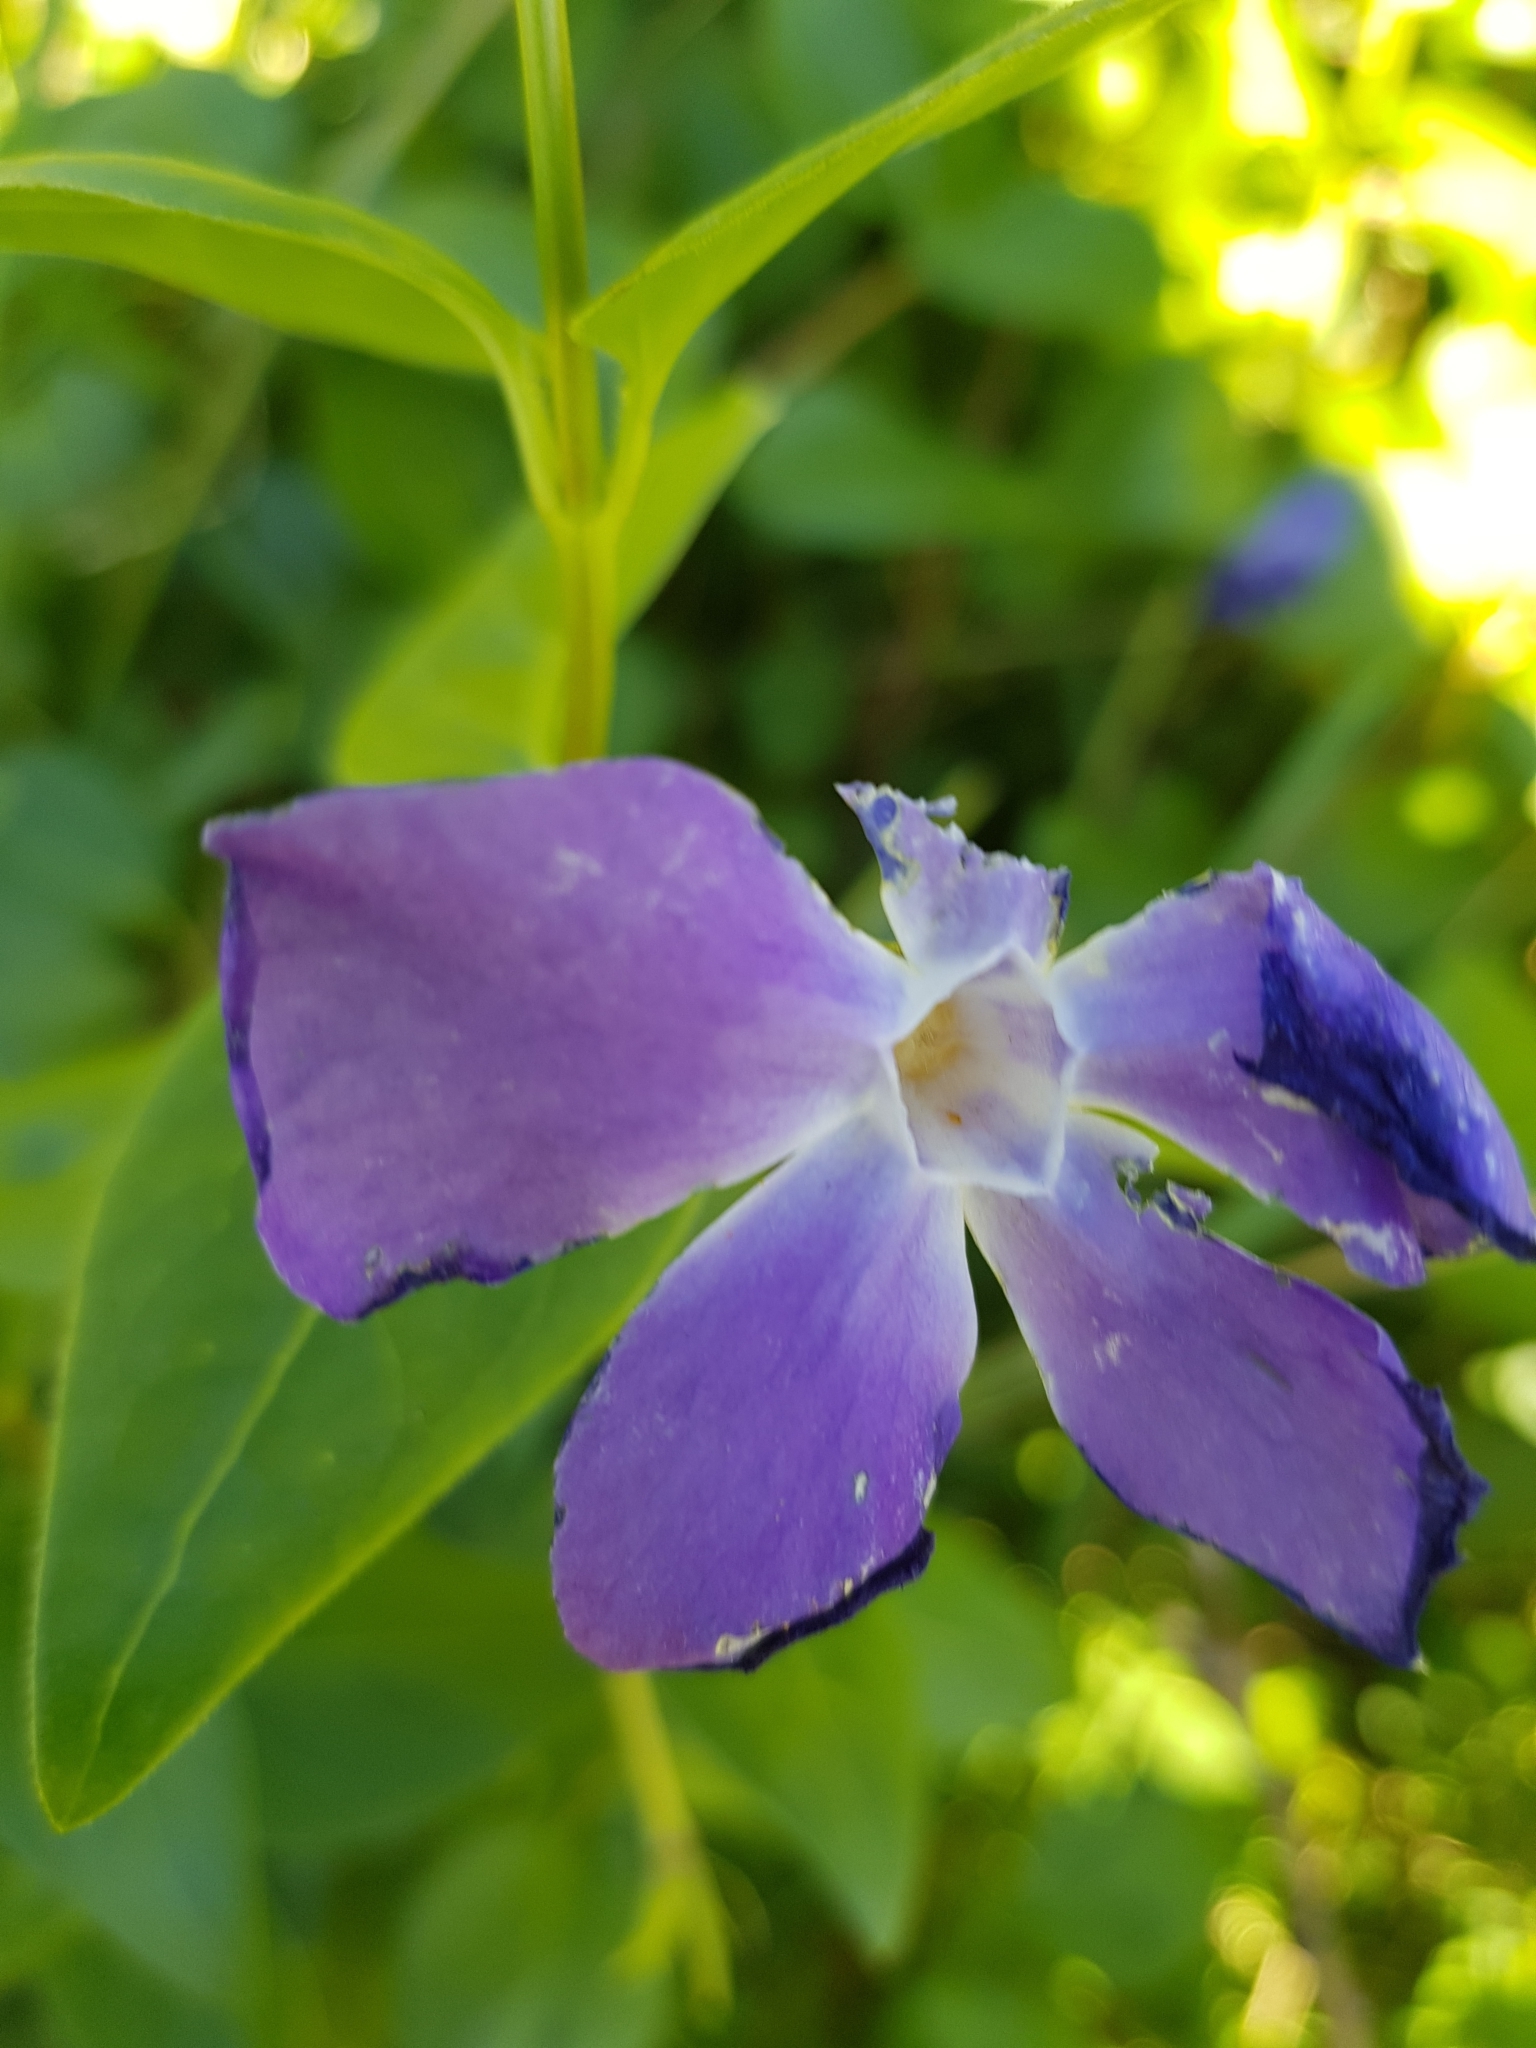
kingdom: Plantae
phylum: Tracheophyta
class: Magnoliopsida
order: Gentianales
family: Apocynaceae
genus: Vinca
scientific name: Vinca major
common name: Greater periwinkle
